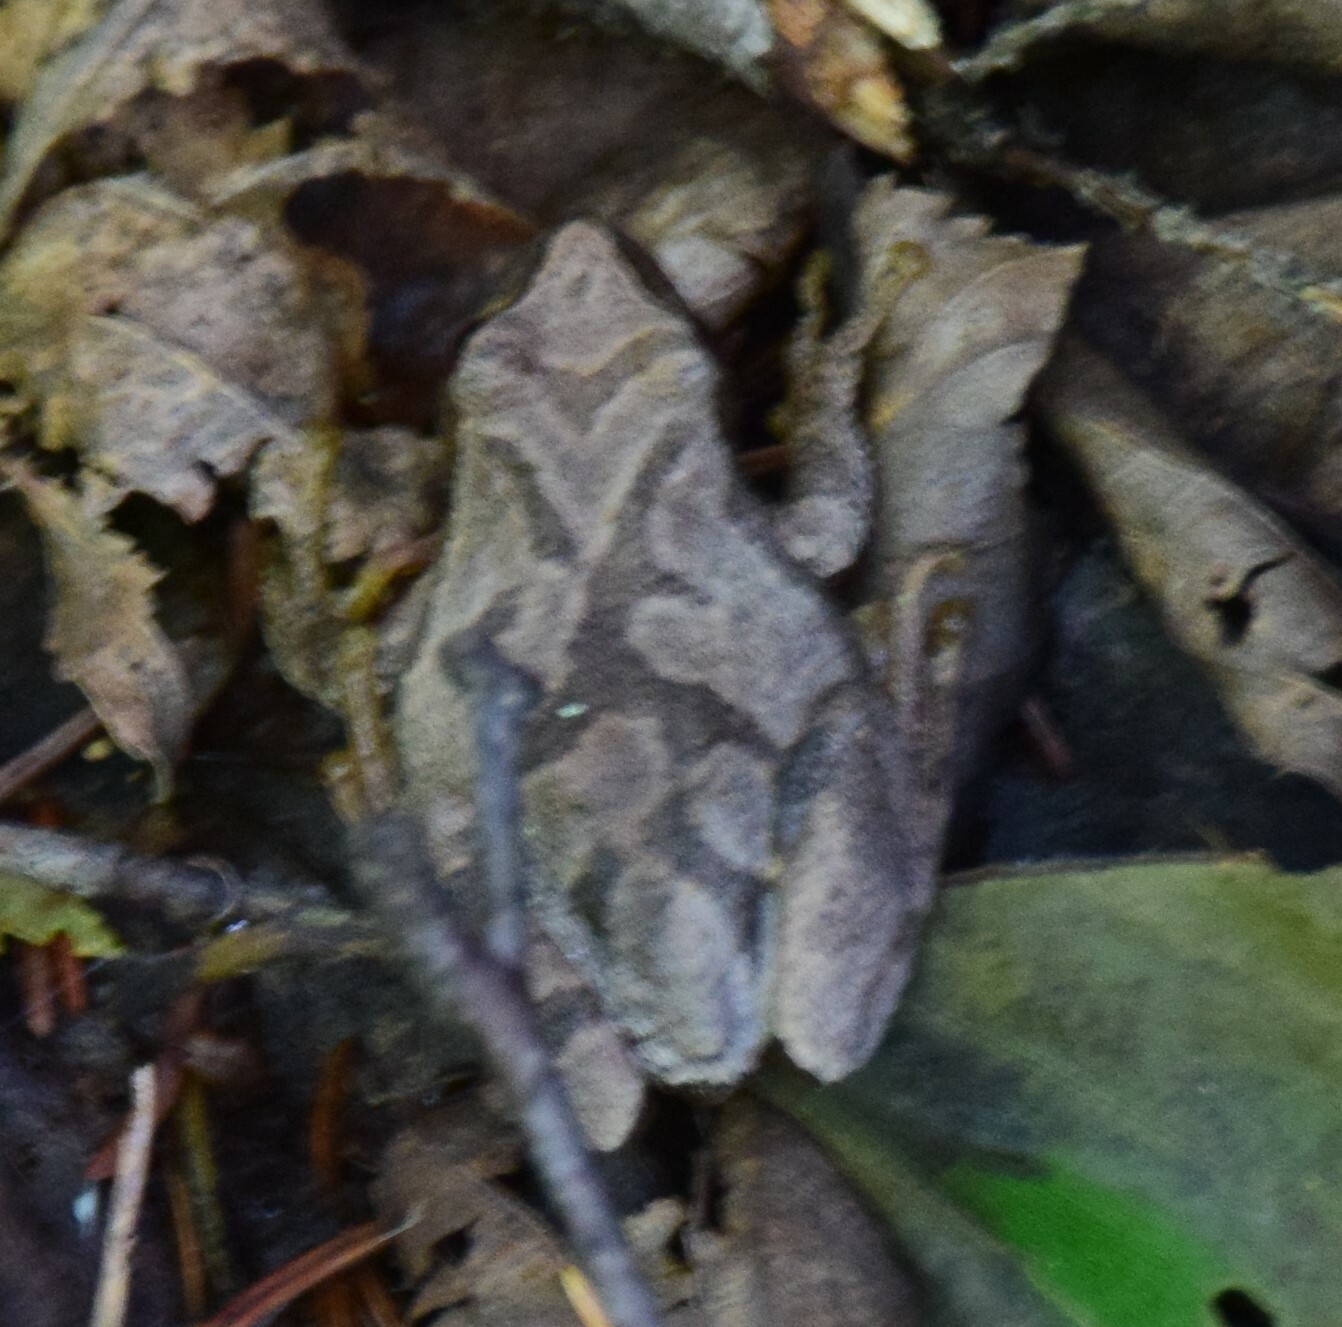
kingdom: Animalia
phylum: Chordata
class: Amphibia
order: Anura
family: Hylidae
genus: Pseudacris
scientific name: Pseudacris crucifer
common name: Spring peeper
